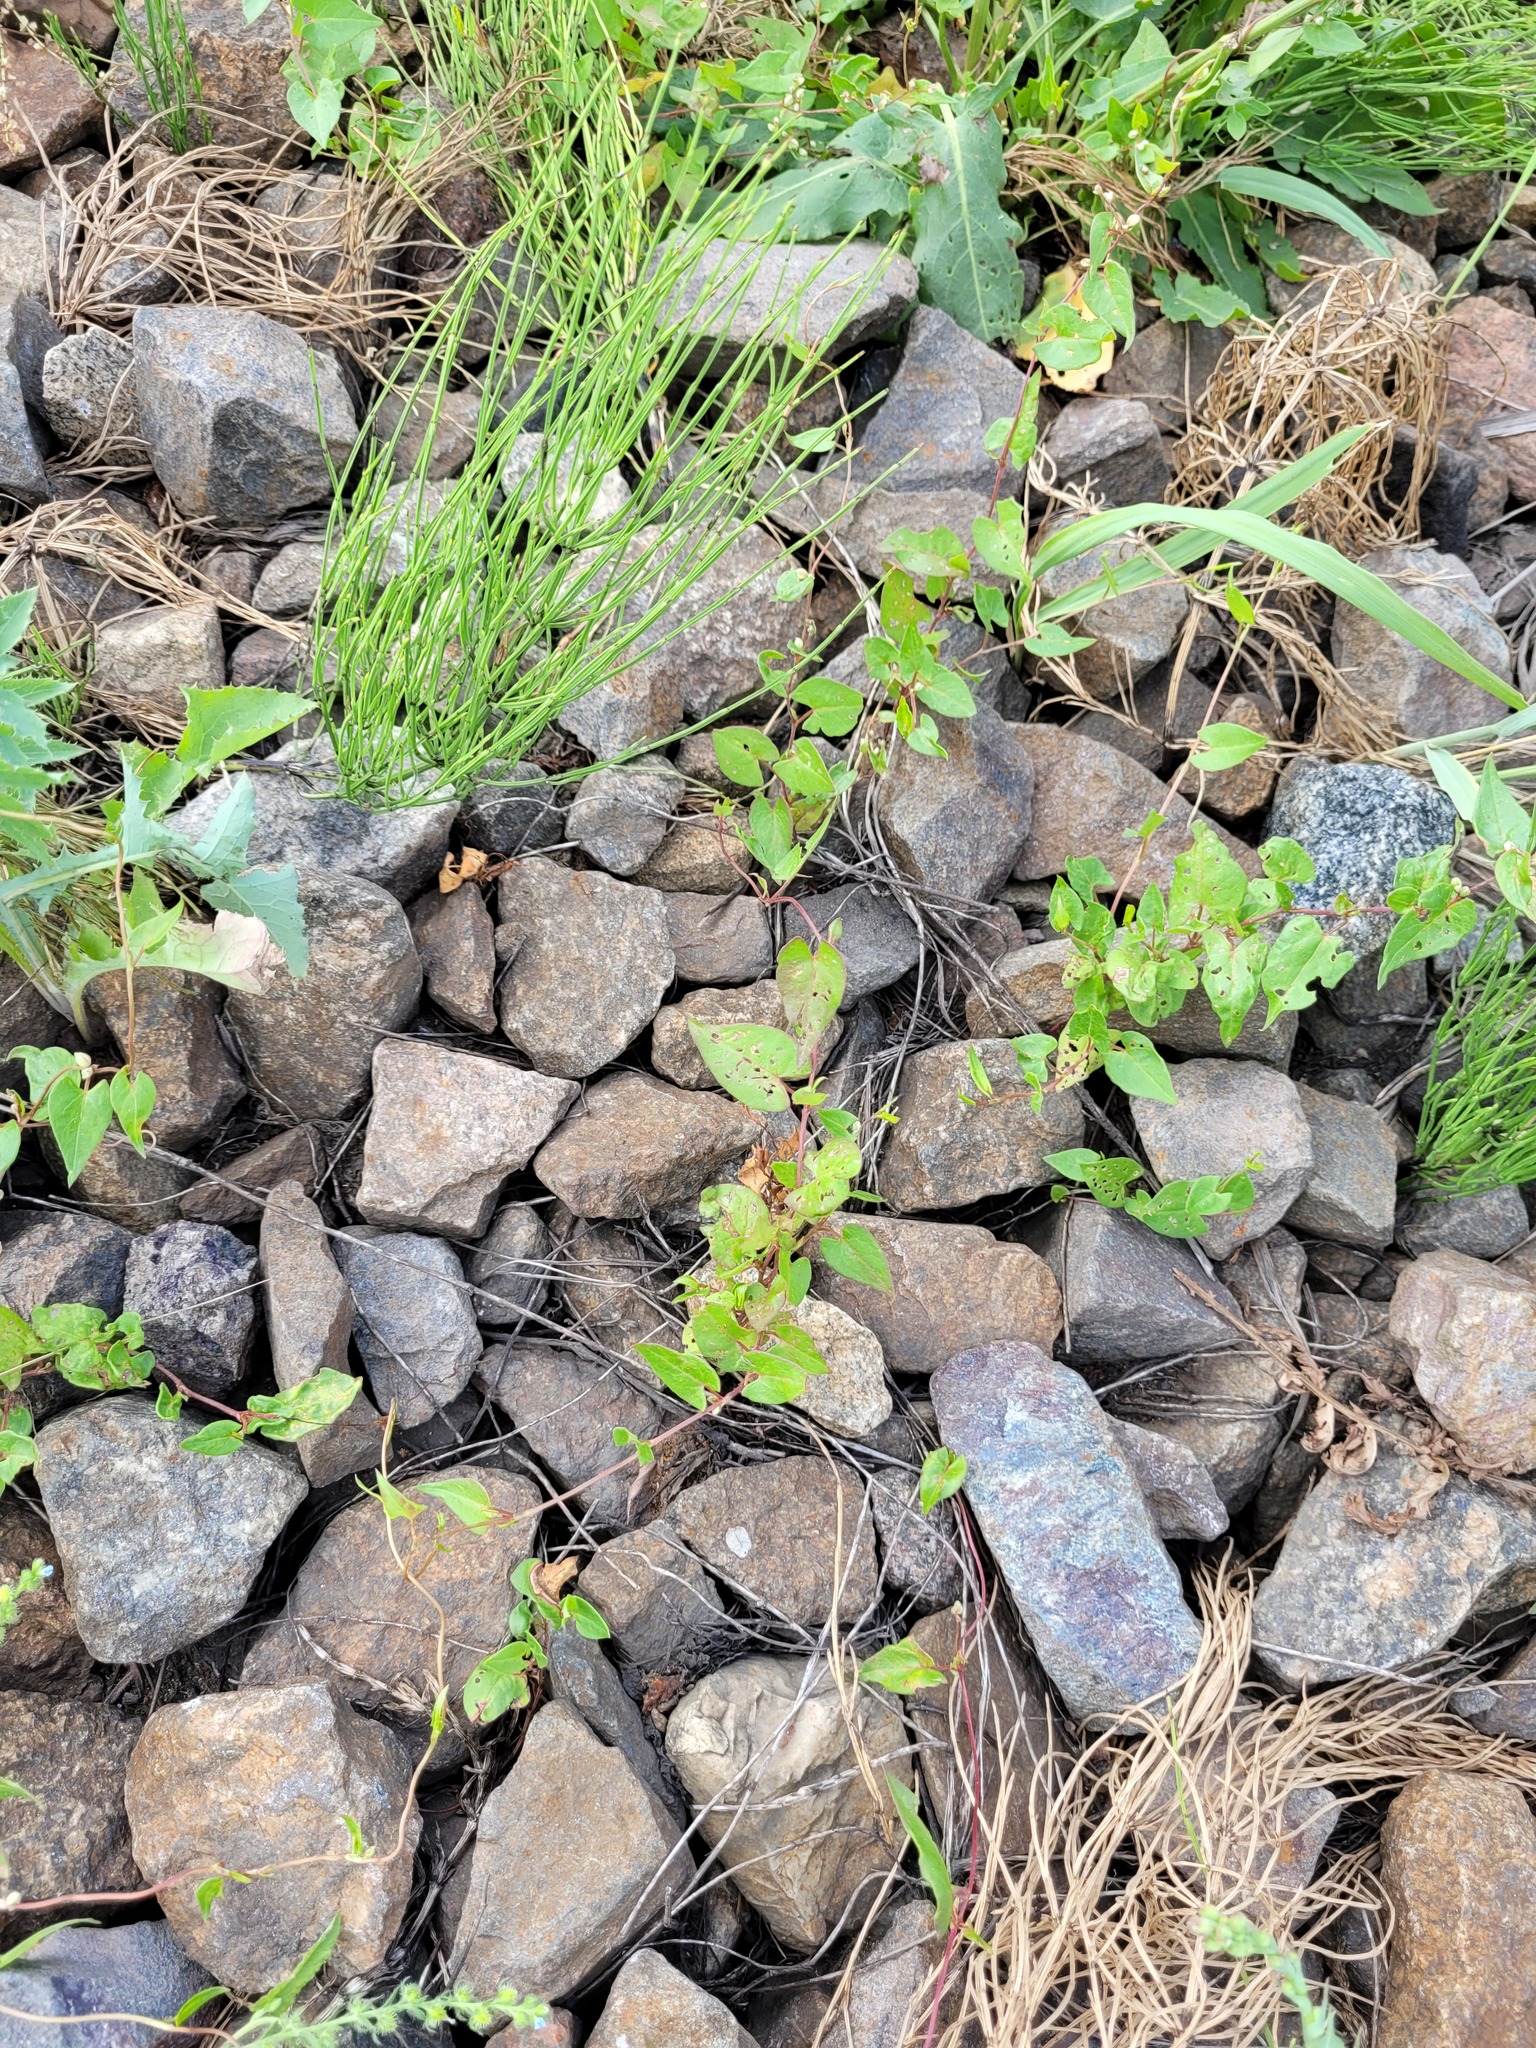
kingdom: Plantae
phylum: Tracheophyta
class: Magnoliopsida
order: Caryophyllales
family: Polygonaceae
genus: Fallopia
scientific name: Fallopia convolvulus
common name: Black bindweed
